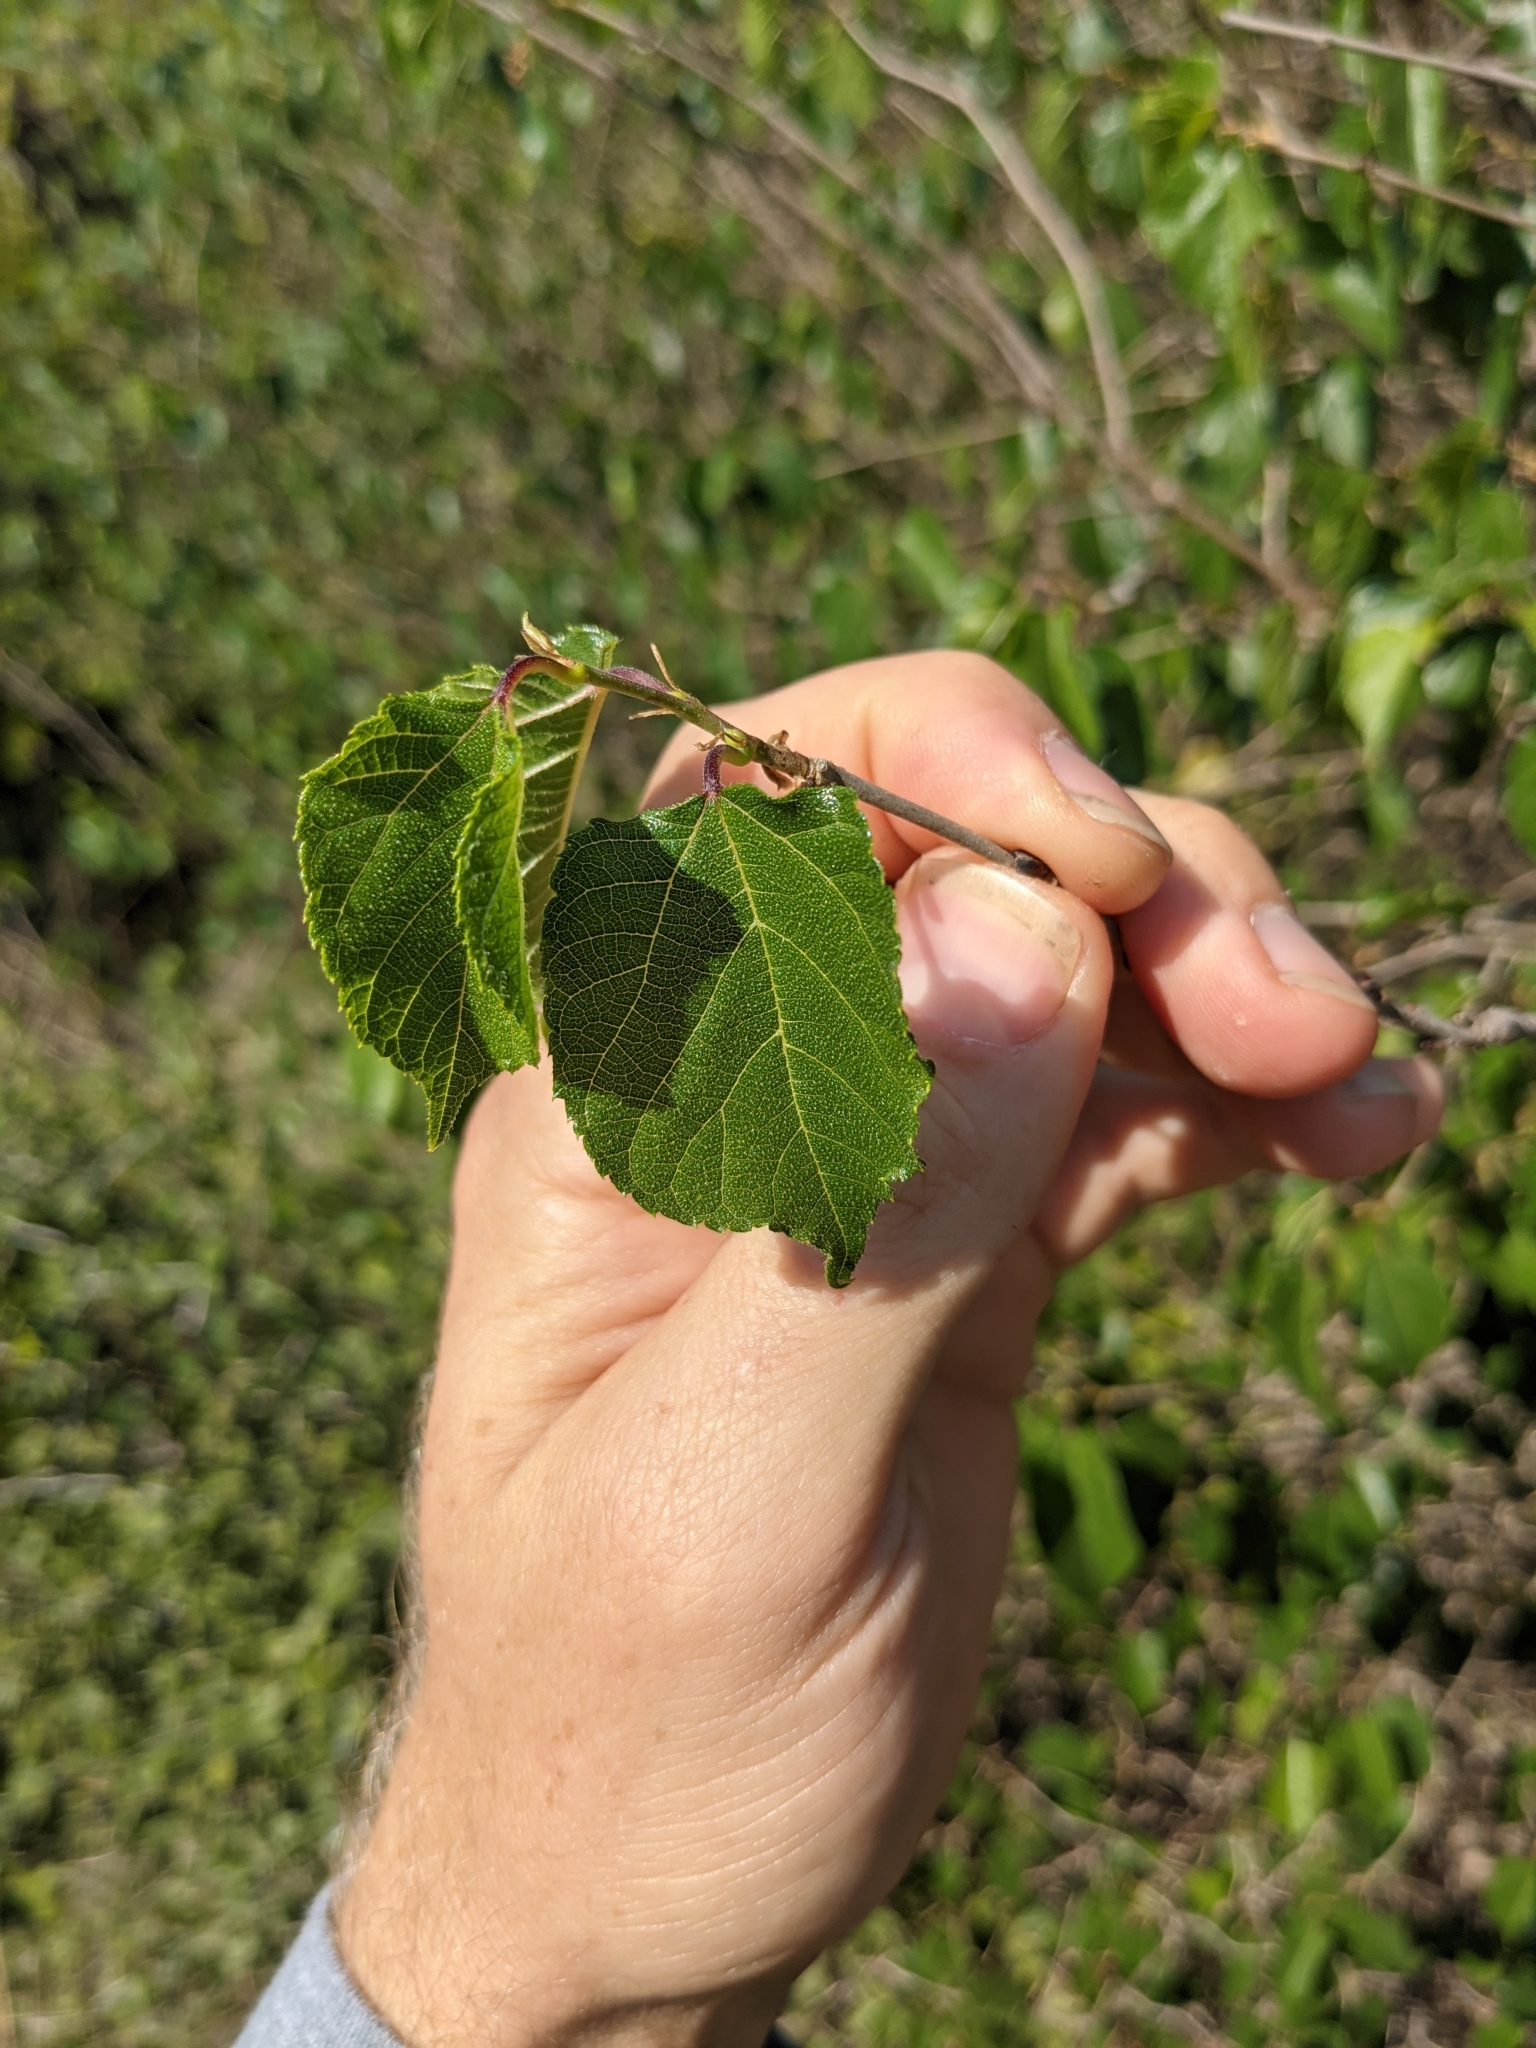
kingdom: Plantae
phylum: Tracheophyta
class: Magnoliopsida
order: Rosales
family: Moraceae
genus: Morus
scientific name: Morus microphylla
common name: Mexican mulberry
